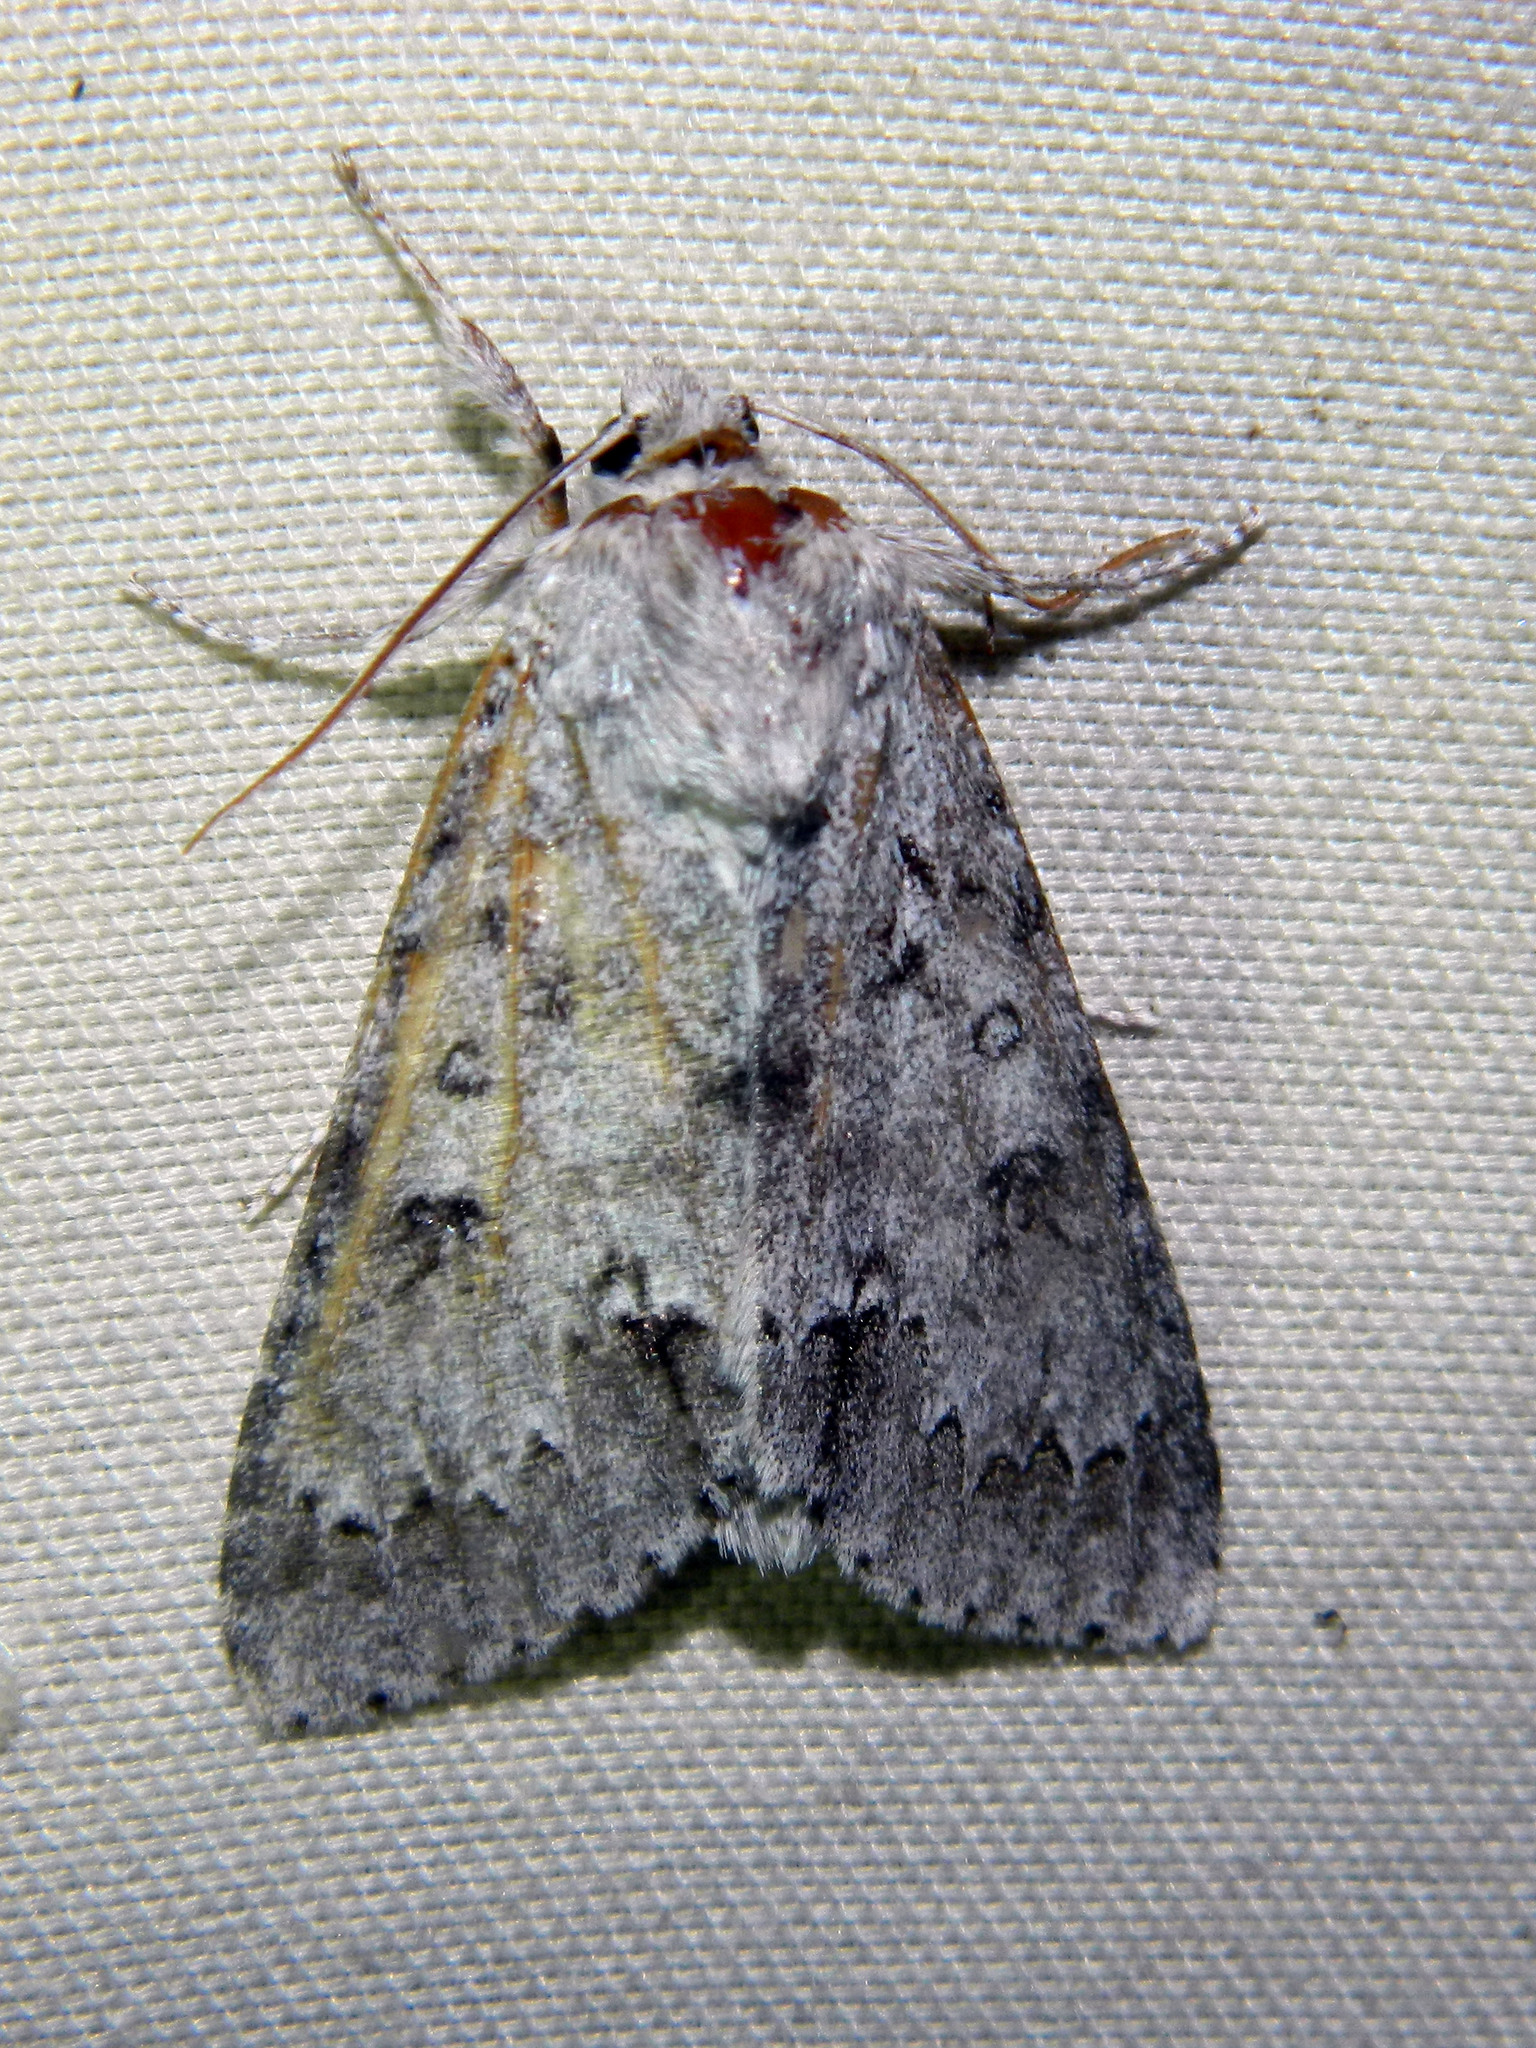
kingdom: Animalia
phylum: Arthropoda
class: Insecta
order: Lepidoptera
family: Noctuidae
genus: Acronicta
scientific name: Acronicta insita
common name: Large gray dagger
